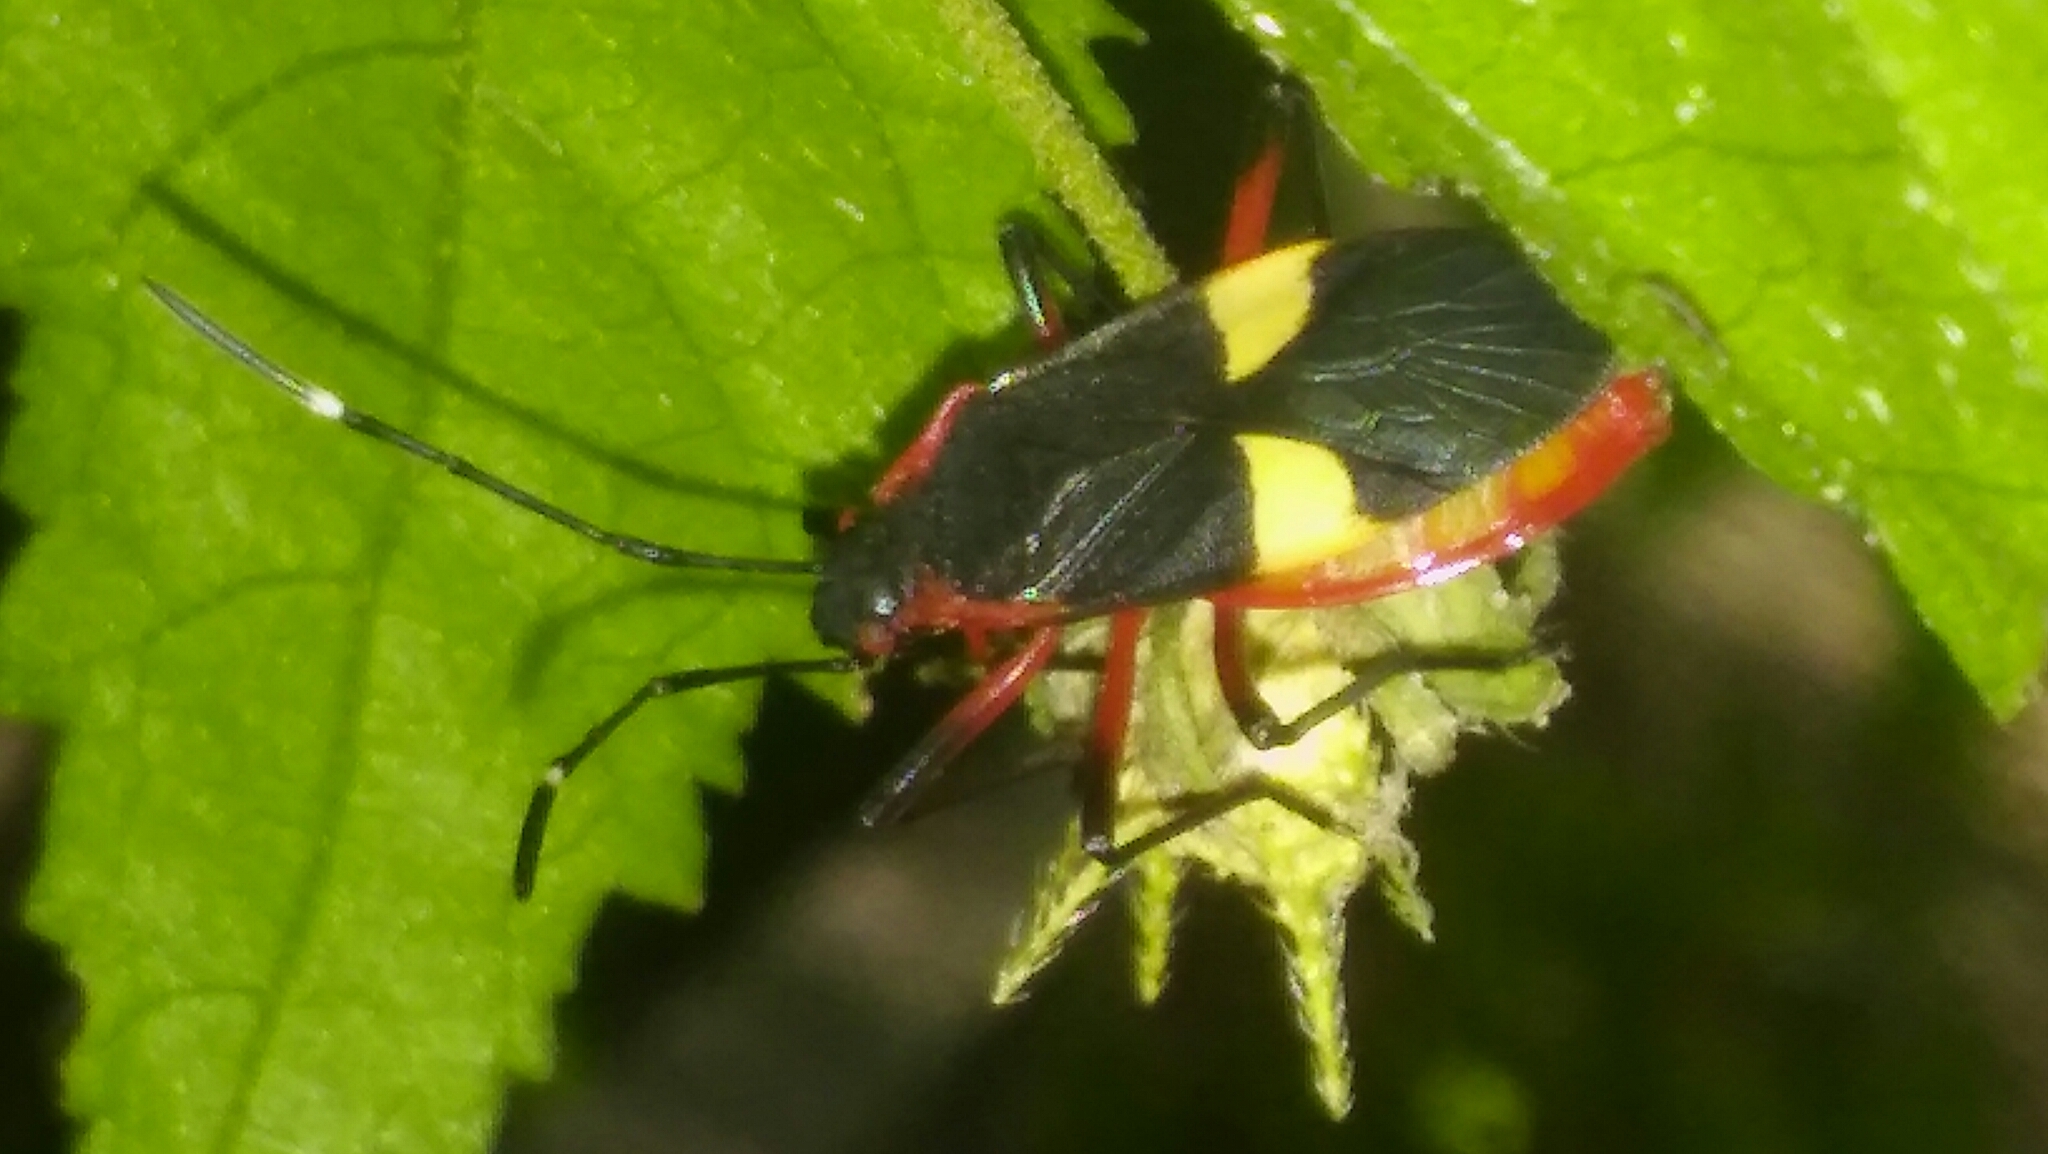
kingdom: Animalia
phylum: Arthropoda
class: Insecta
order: Hemiptera
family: Pyrrhocoridae
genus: Dysdercus
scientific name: Dysdercus albofasciatus
